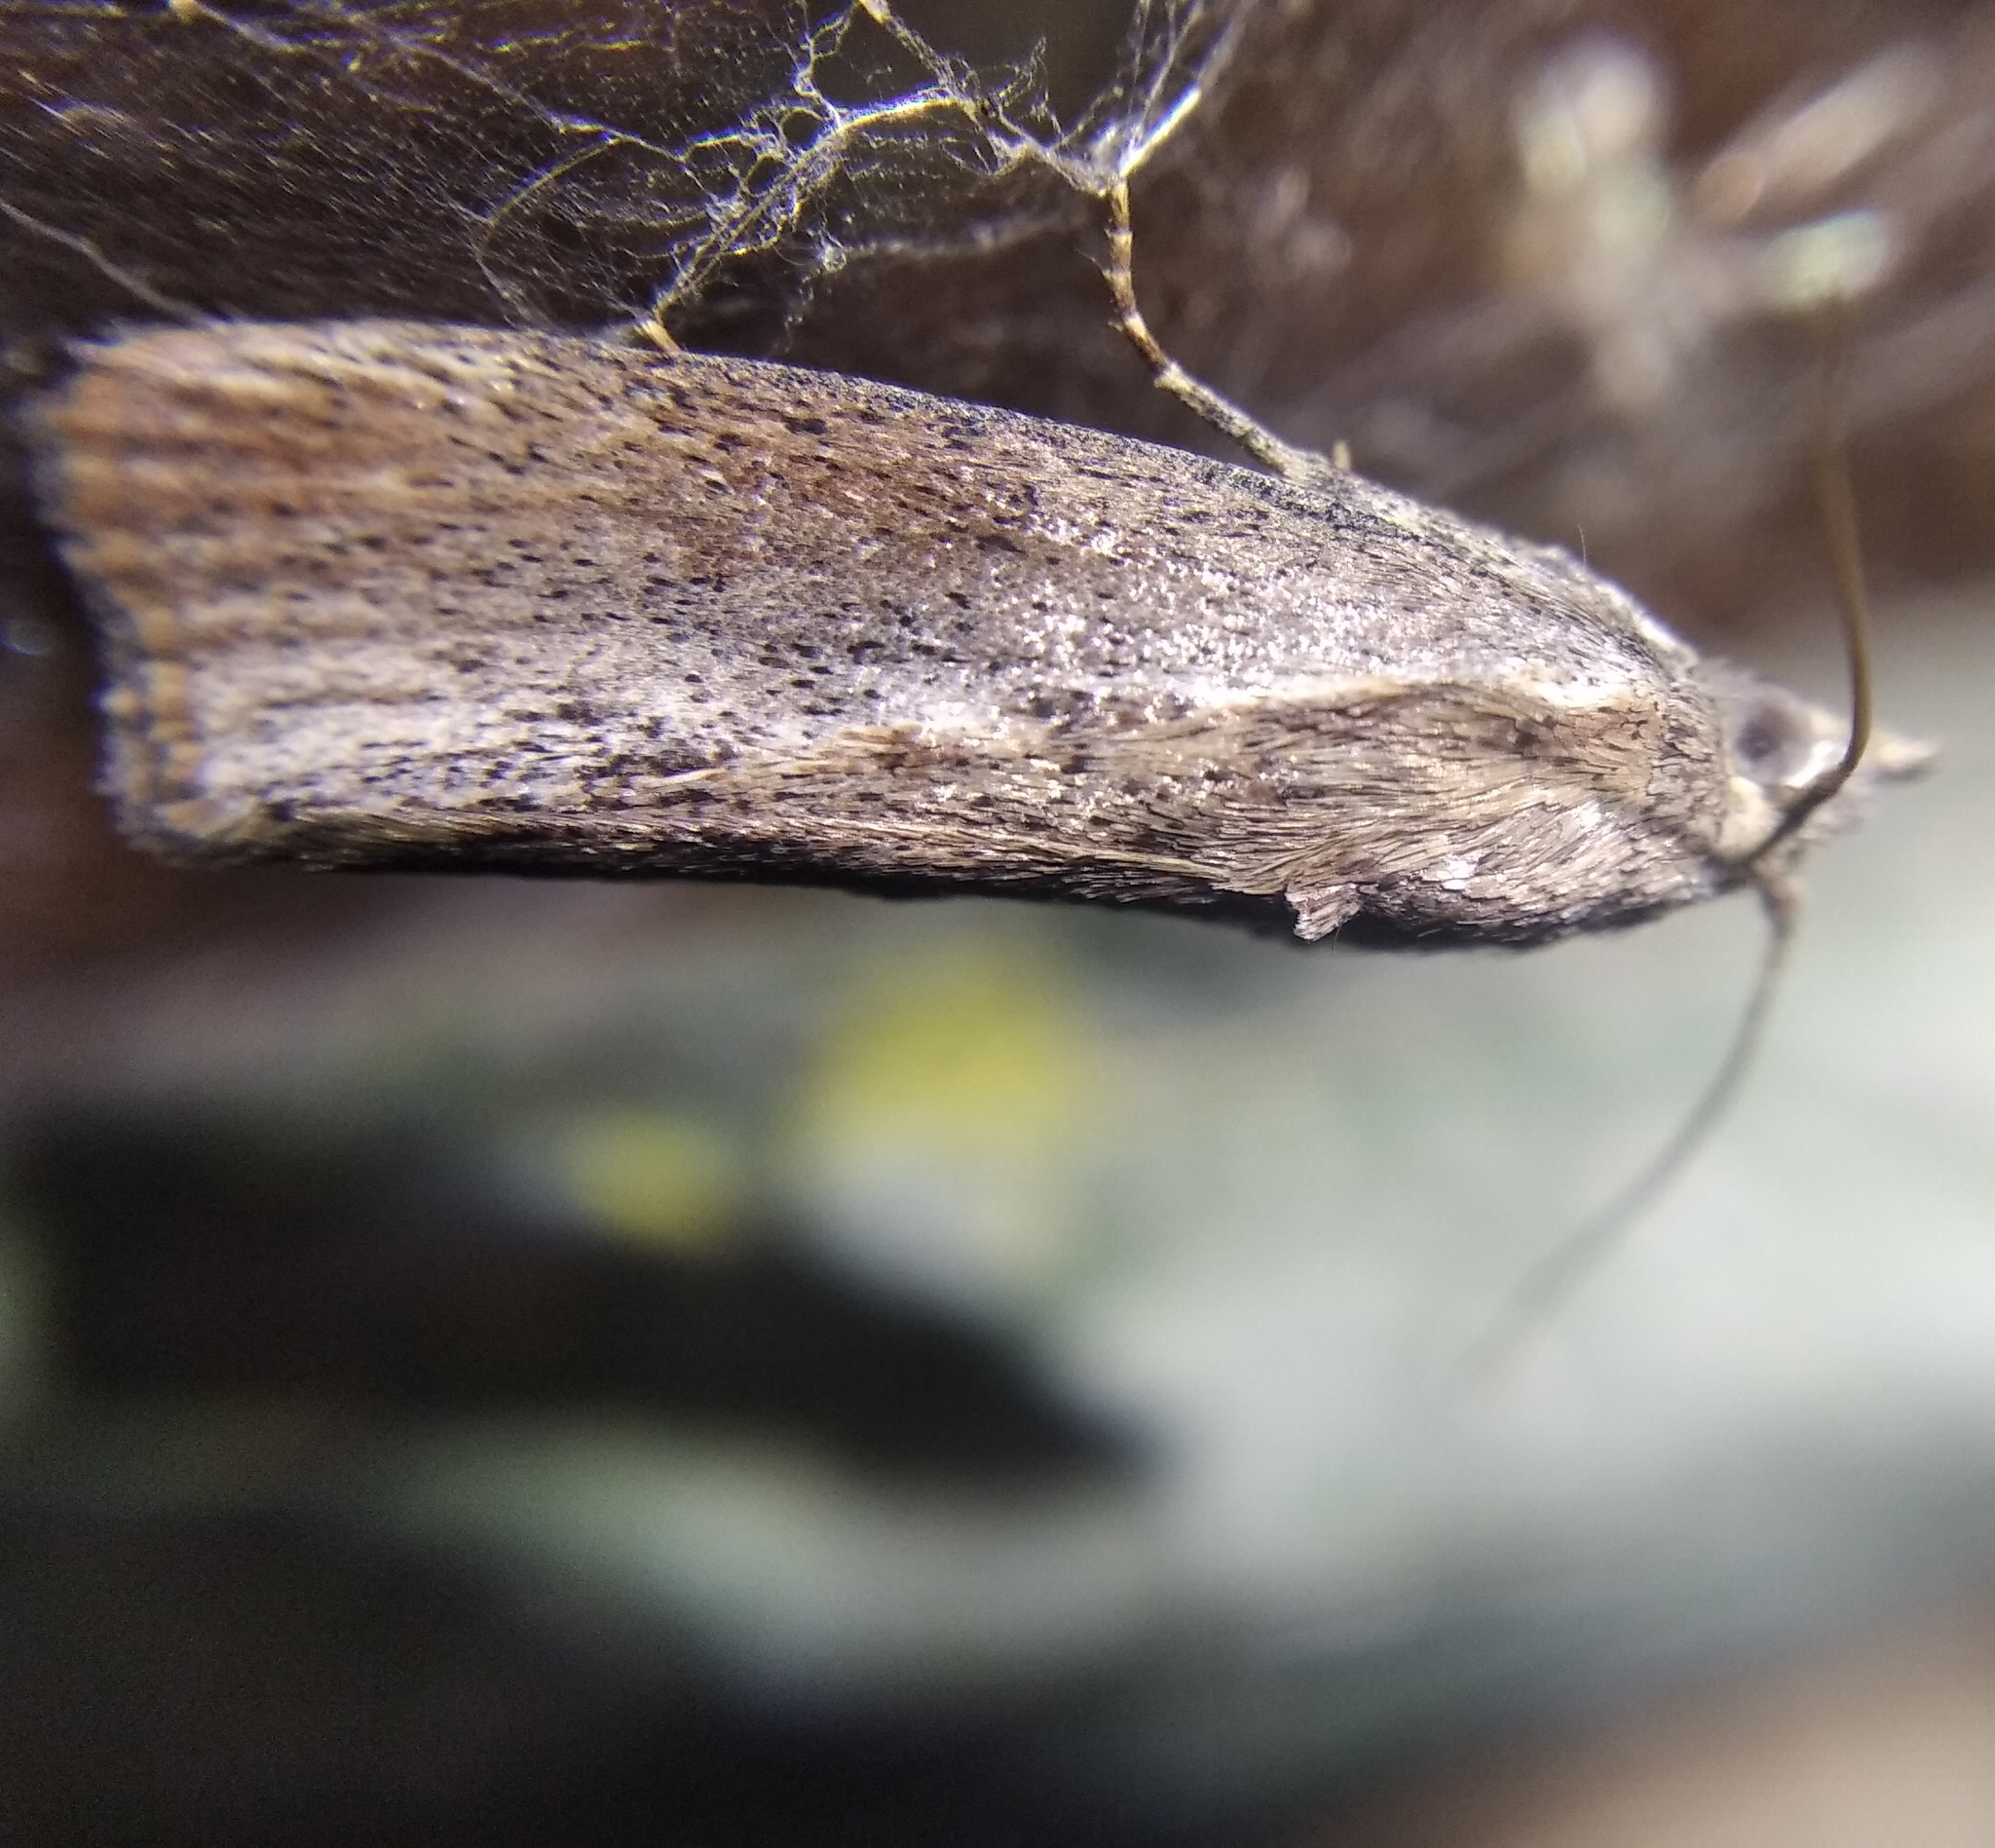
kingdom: Animalia
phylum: Arthropoda
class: Insecta
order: Lepidoptera
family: Pyralidae
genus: Galleria
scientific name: Galleria mellonella
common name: Greater wax moth
